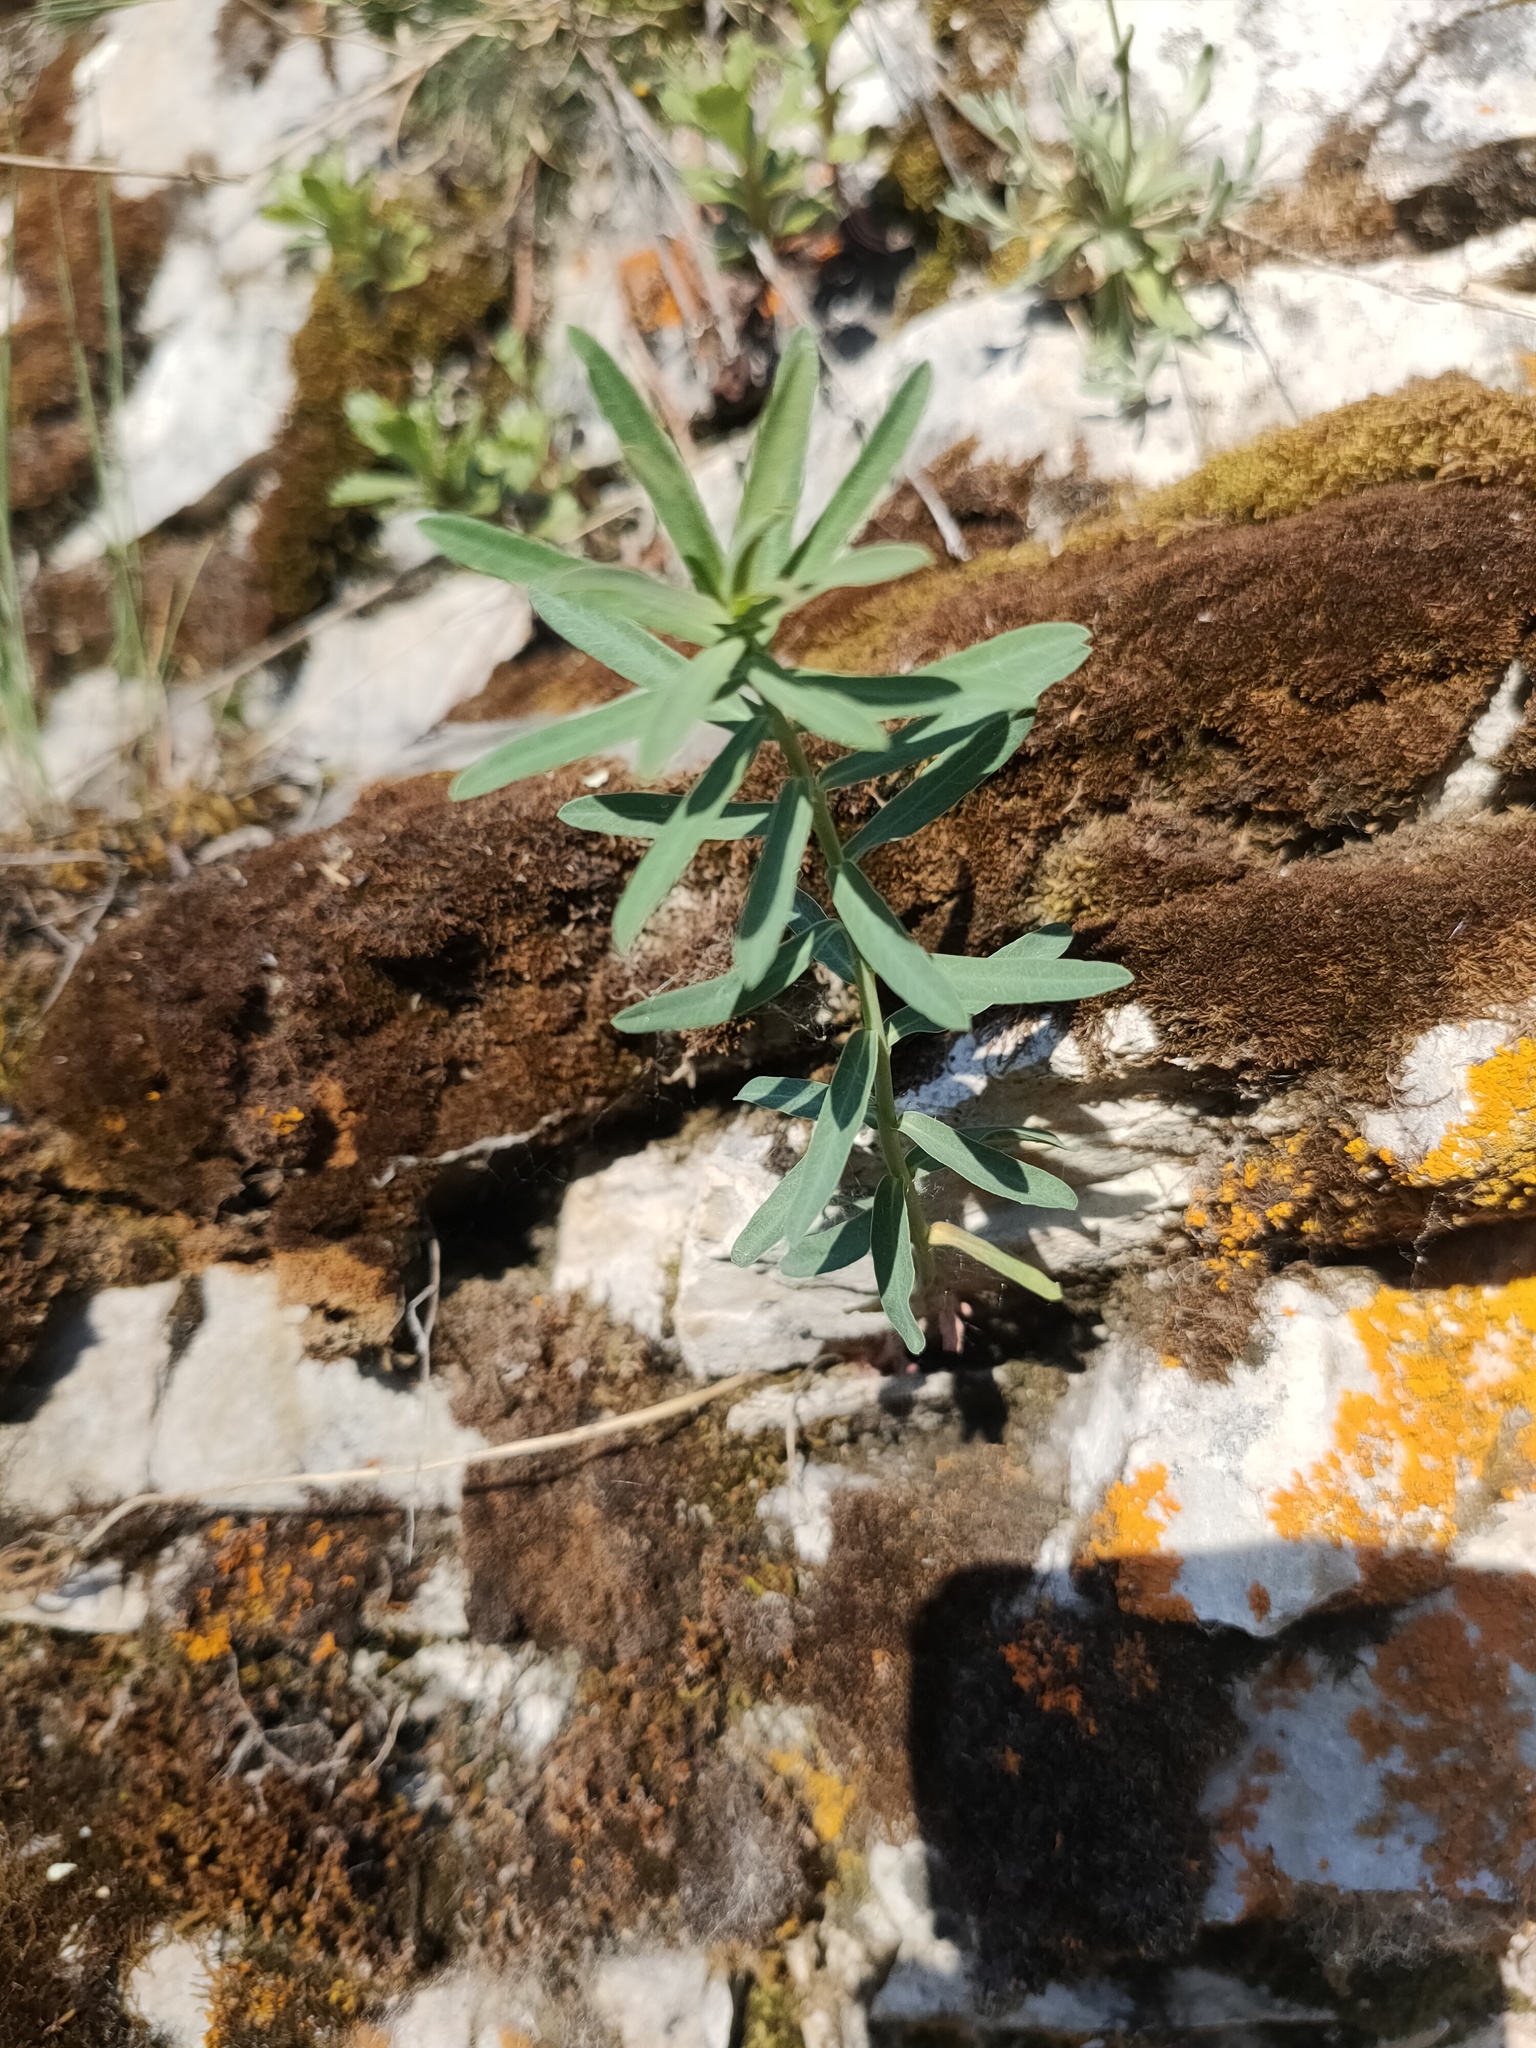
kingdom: Plantae
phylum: Tracheophyta
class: Magnoliopsida
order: Malpighiales
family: Euphorbiaceae
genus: Euphorbia
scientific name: Euphorbia virgata
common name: Leafy spurge
